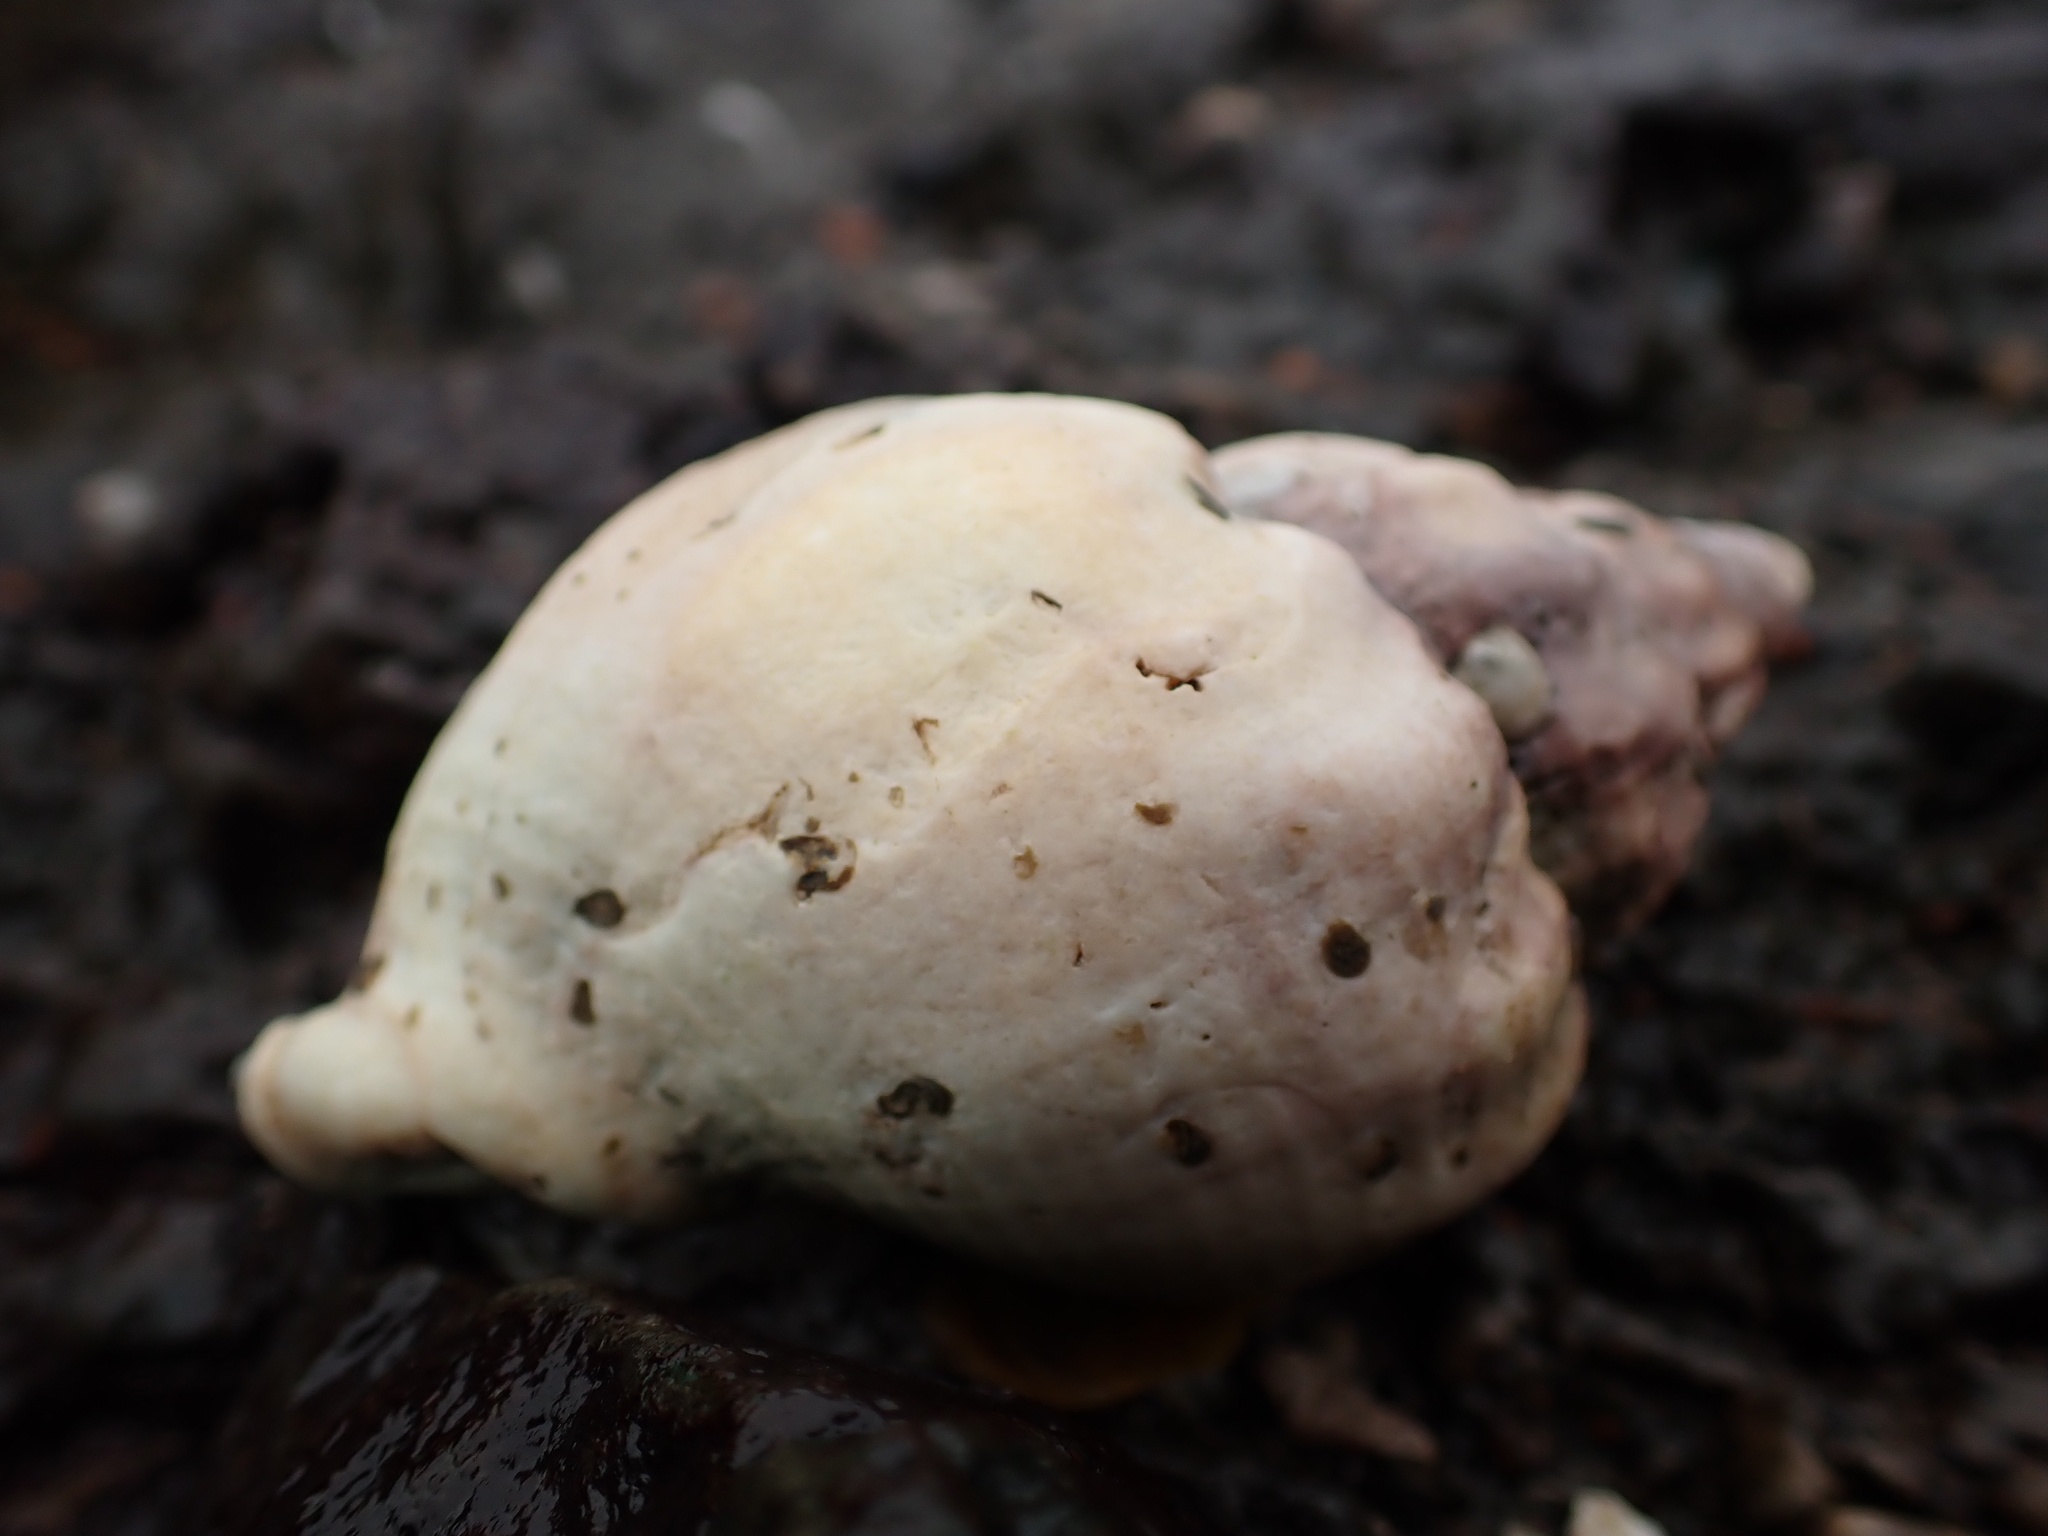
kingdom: Animalia
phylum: Mollusca
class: Gastropoda
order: Neogastropoda
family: Buccinidae
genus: Buccinum
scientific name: Buccinum undatum
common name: Common whelk
